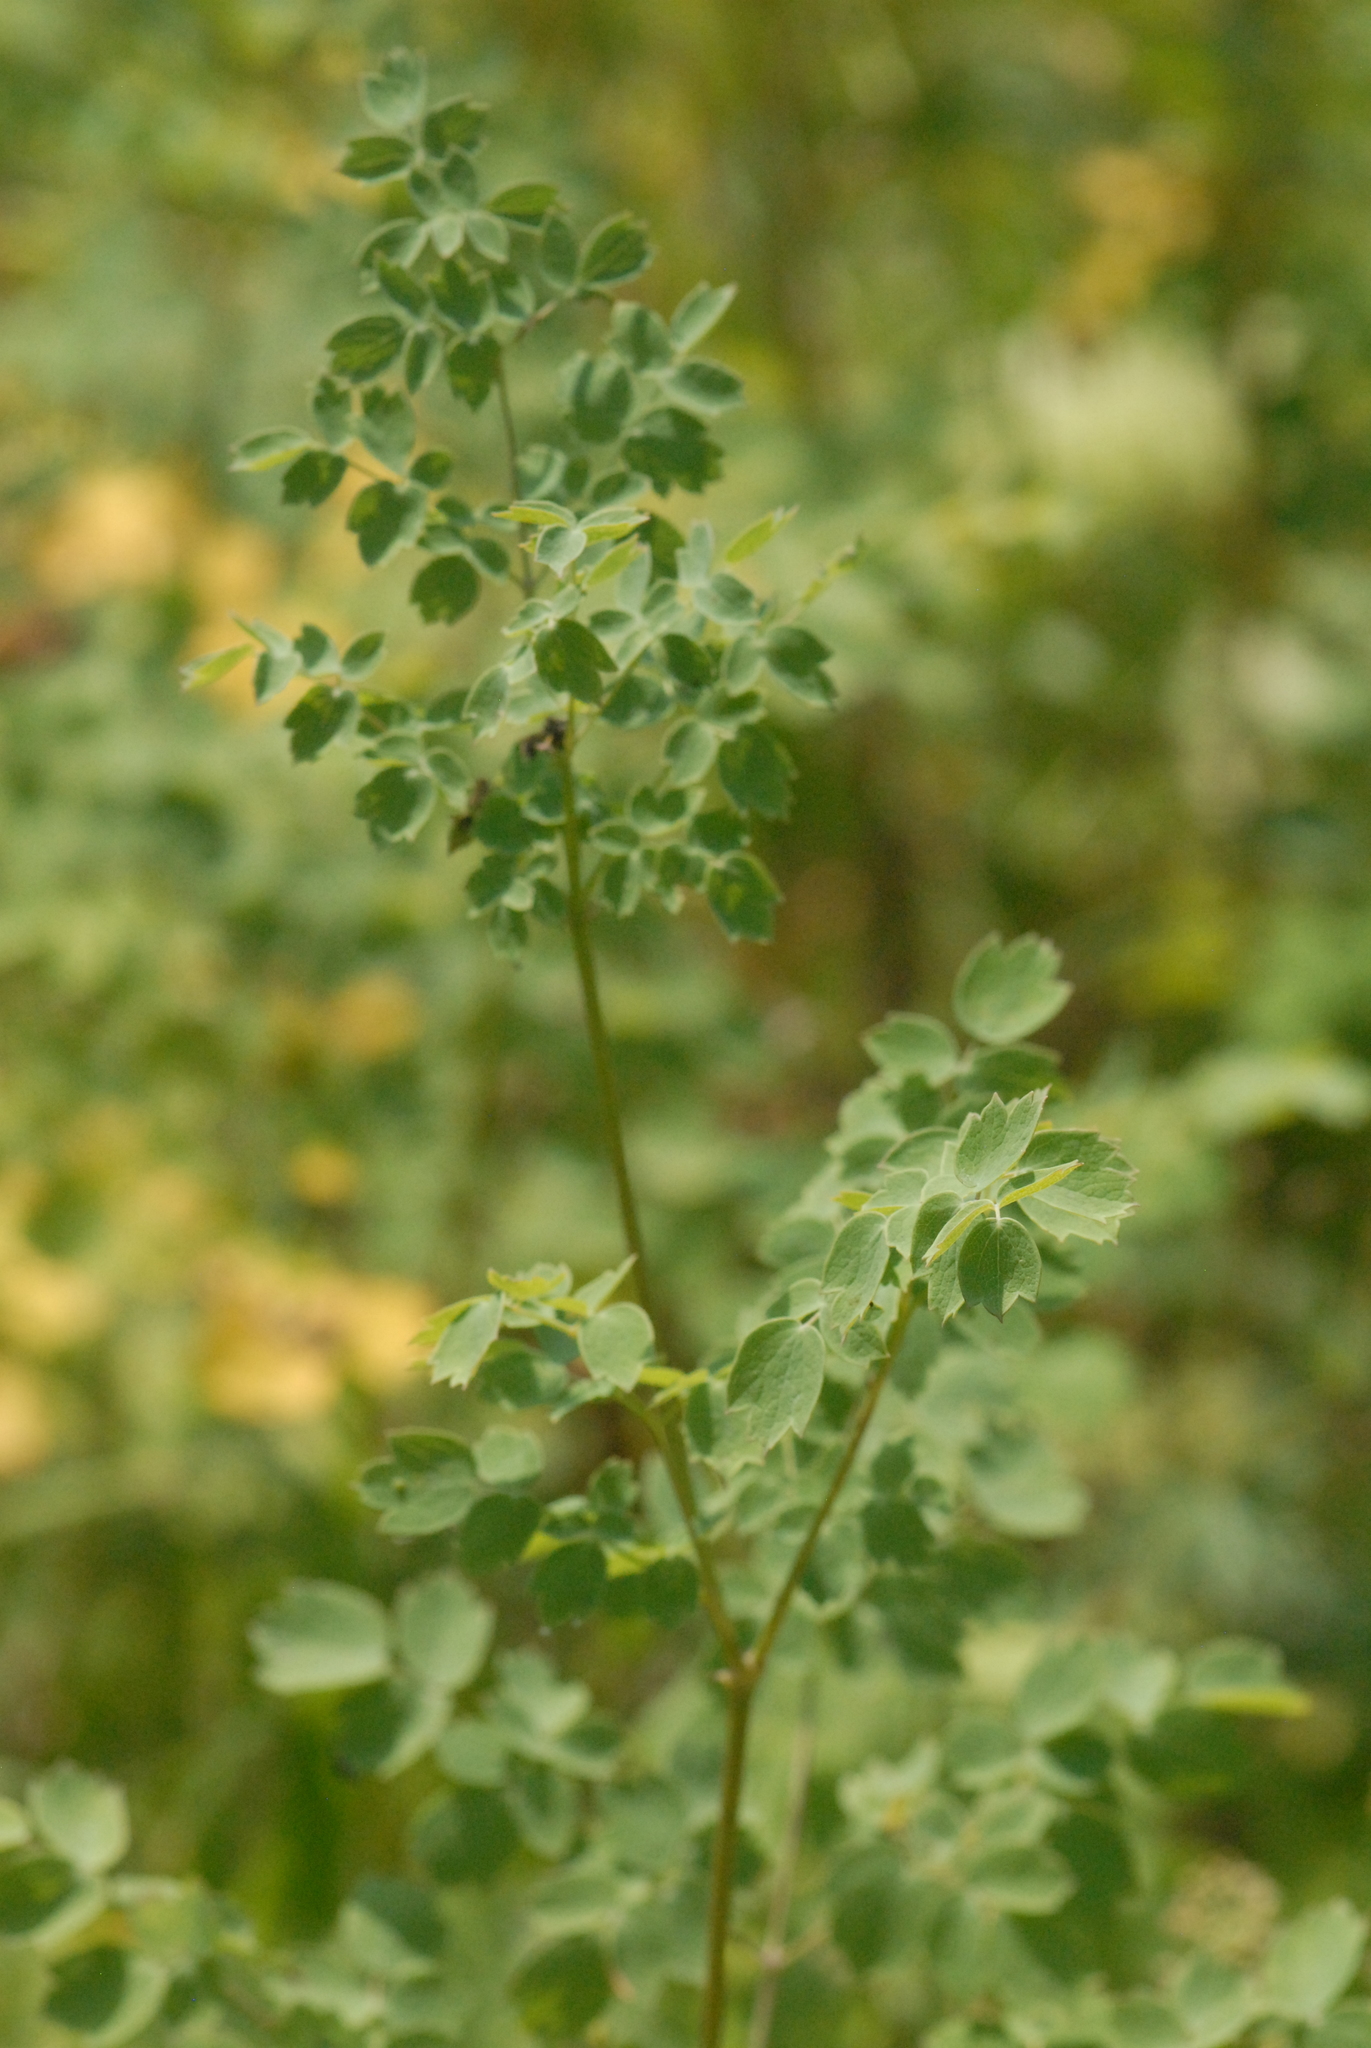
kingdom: Plantae
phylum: Tracheophyta
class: Magnoliopsida
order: Ranunculales
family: Ranunculaceae
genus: Thalictrum
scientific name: Thalictrum foetidum
